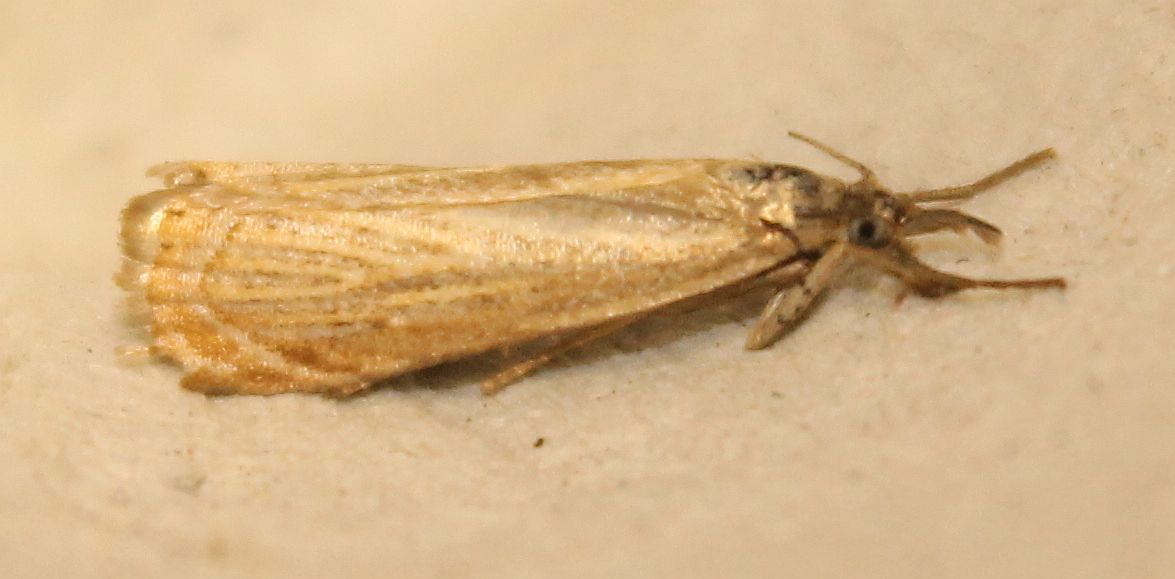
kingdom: Animalia
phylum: Arthropoda
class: Insecta
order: Lepidoptera
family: Crambidae
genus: Chrysoteuchia
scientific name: Chrysoteuchia culmella
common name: Garden grass-veneer
